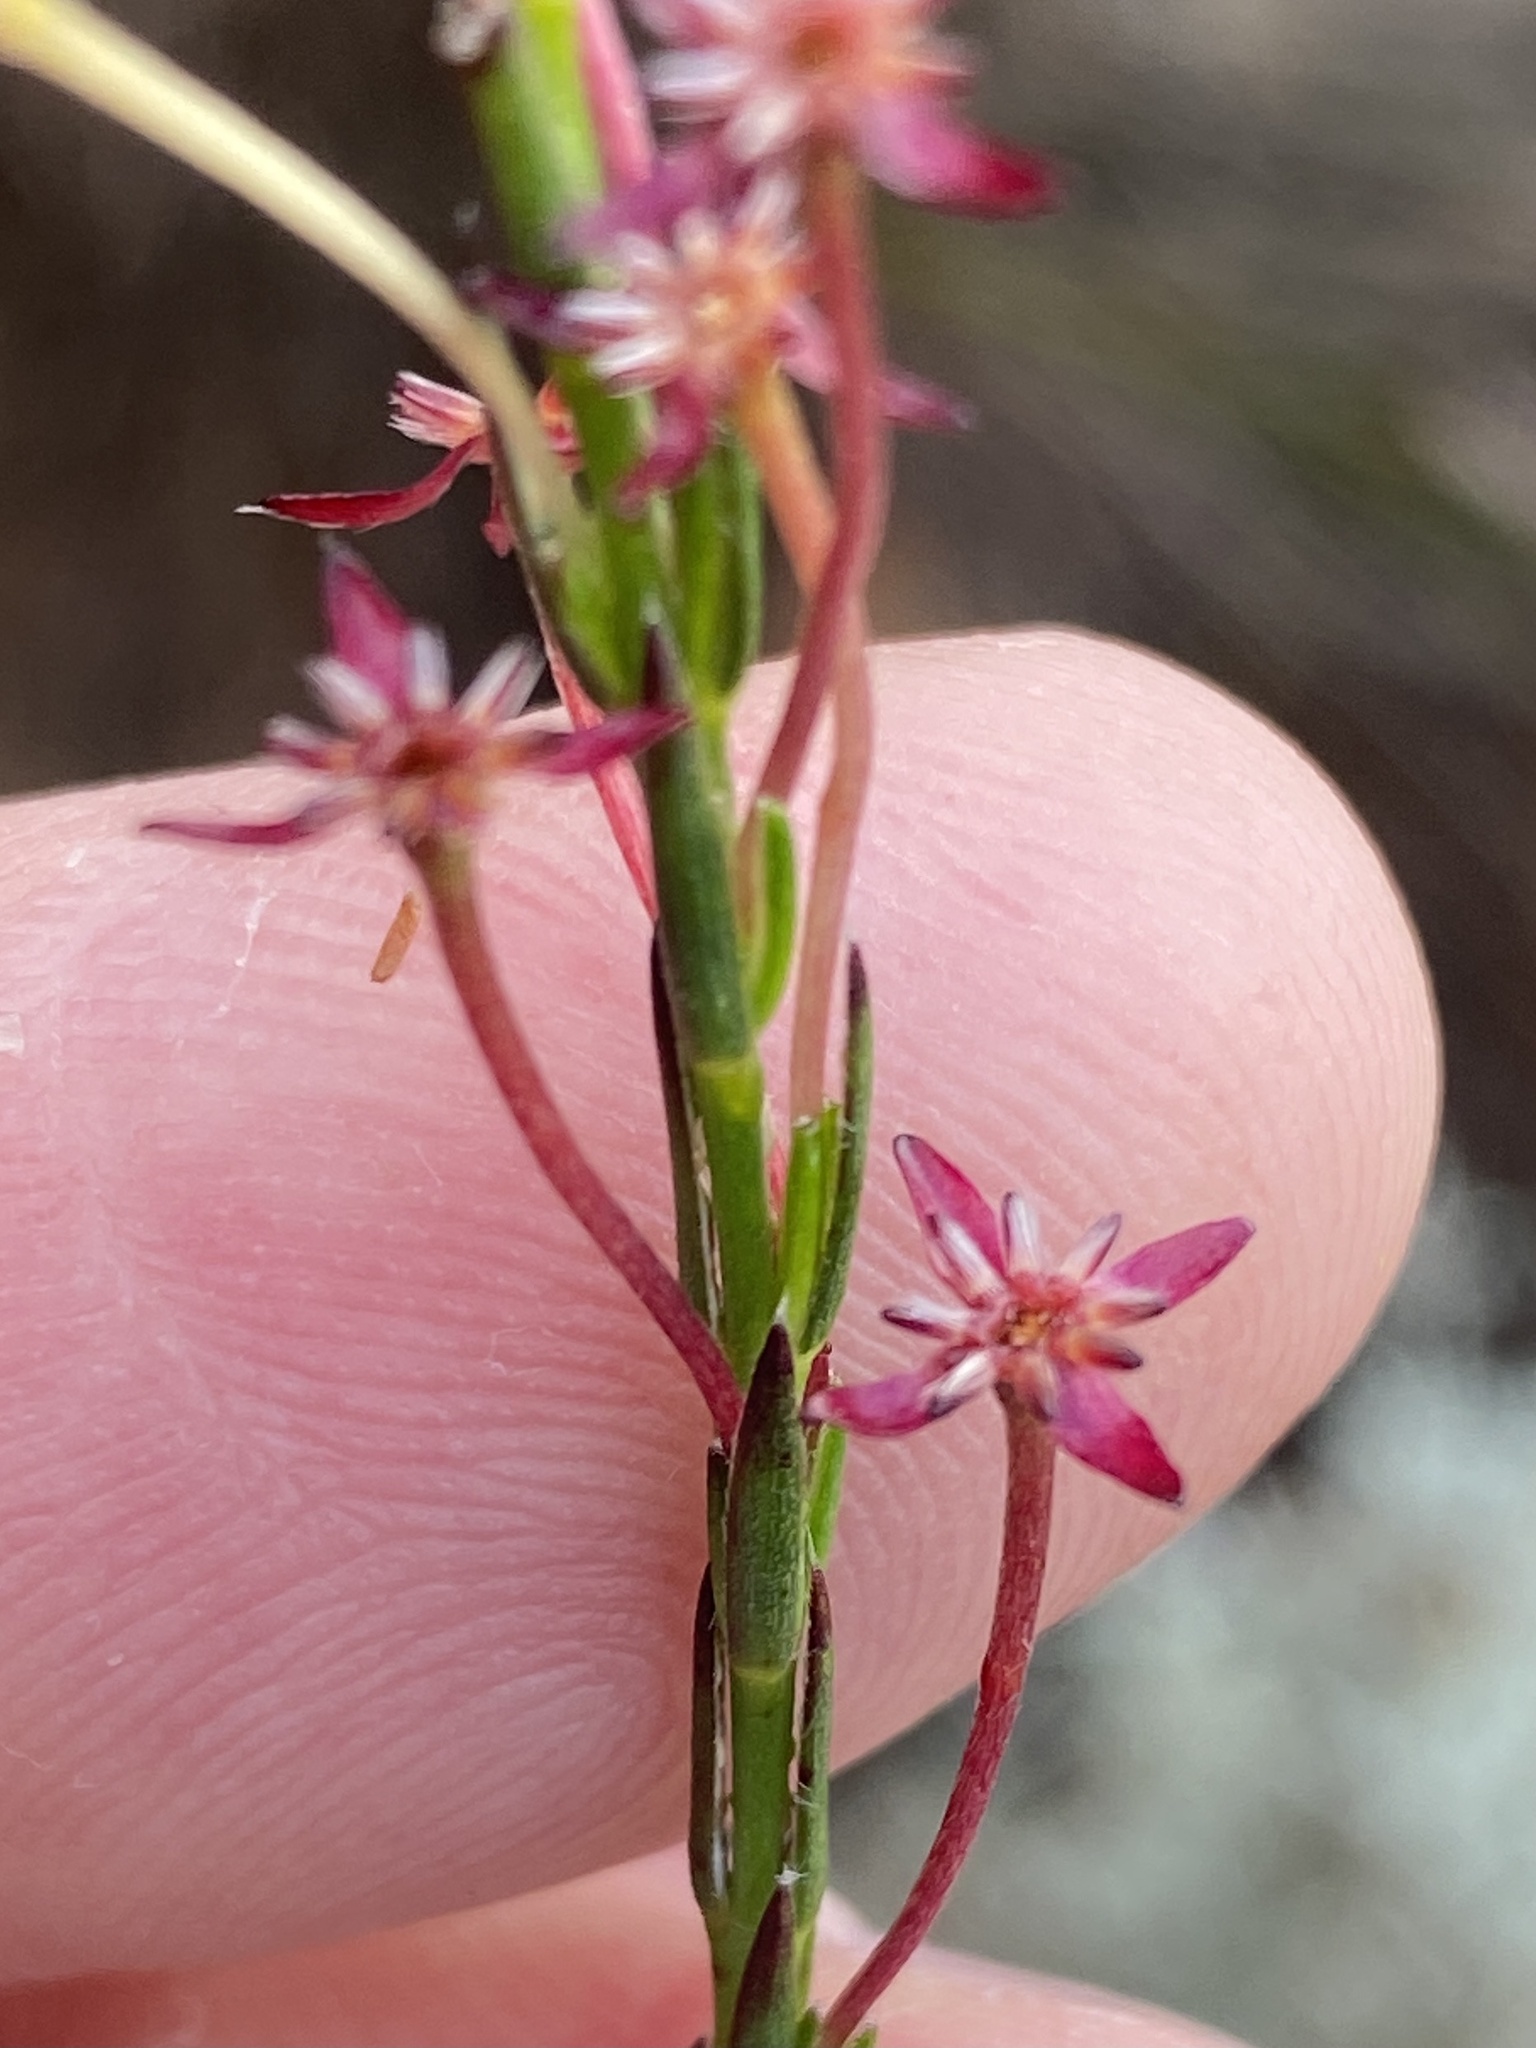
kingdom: Plantae
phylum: Tracheophyta
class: Magnoliopsida
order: Malvales
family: Thymelaeaceae
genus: Struthiola
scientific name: Struthiola macowanii
